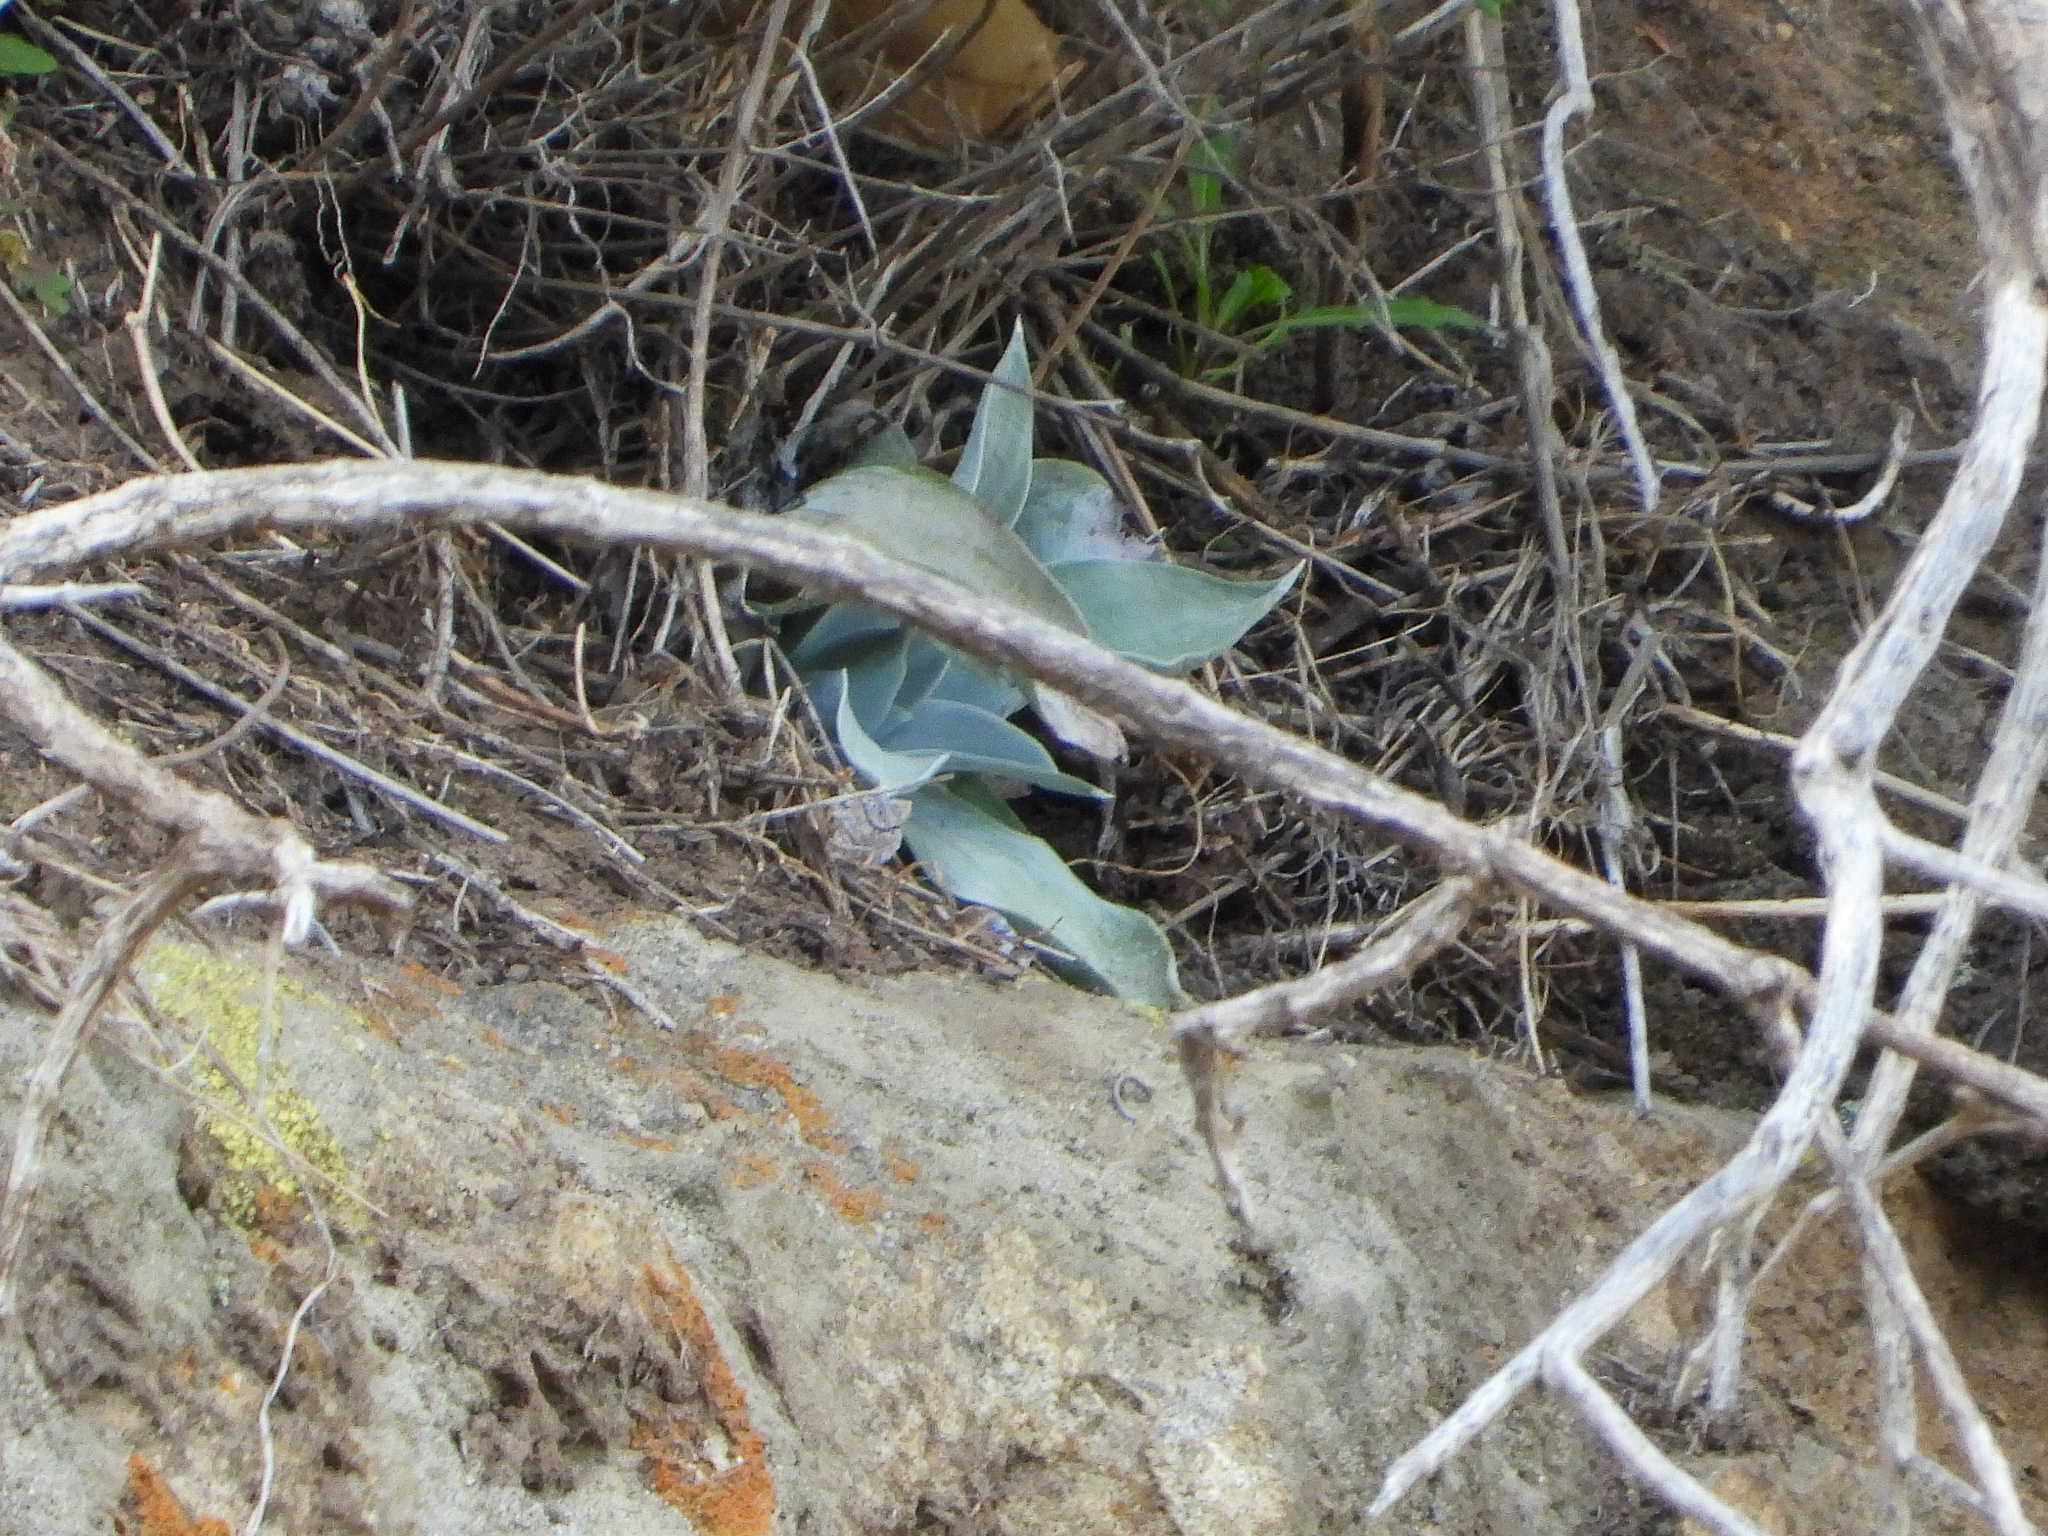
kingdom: Plantae
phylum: Tracheophyta
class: Magnoliopsida
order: Saxifragales
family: Crassulaceae
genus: Dudleya
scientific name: Dudleya pulverulenta
